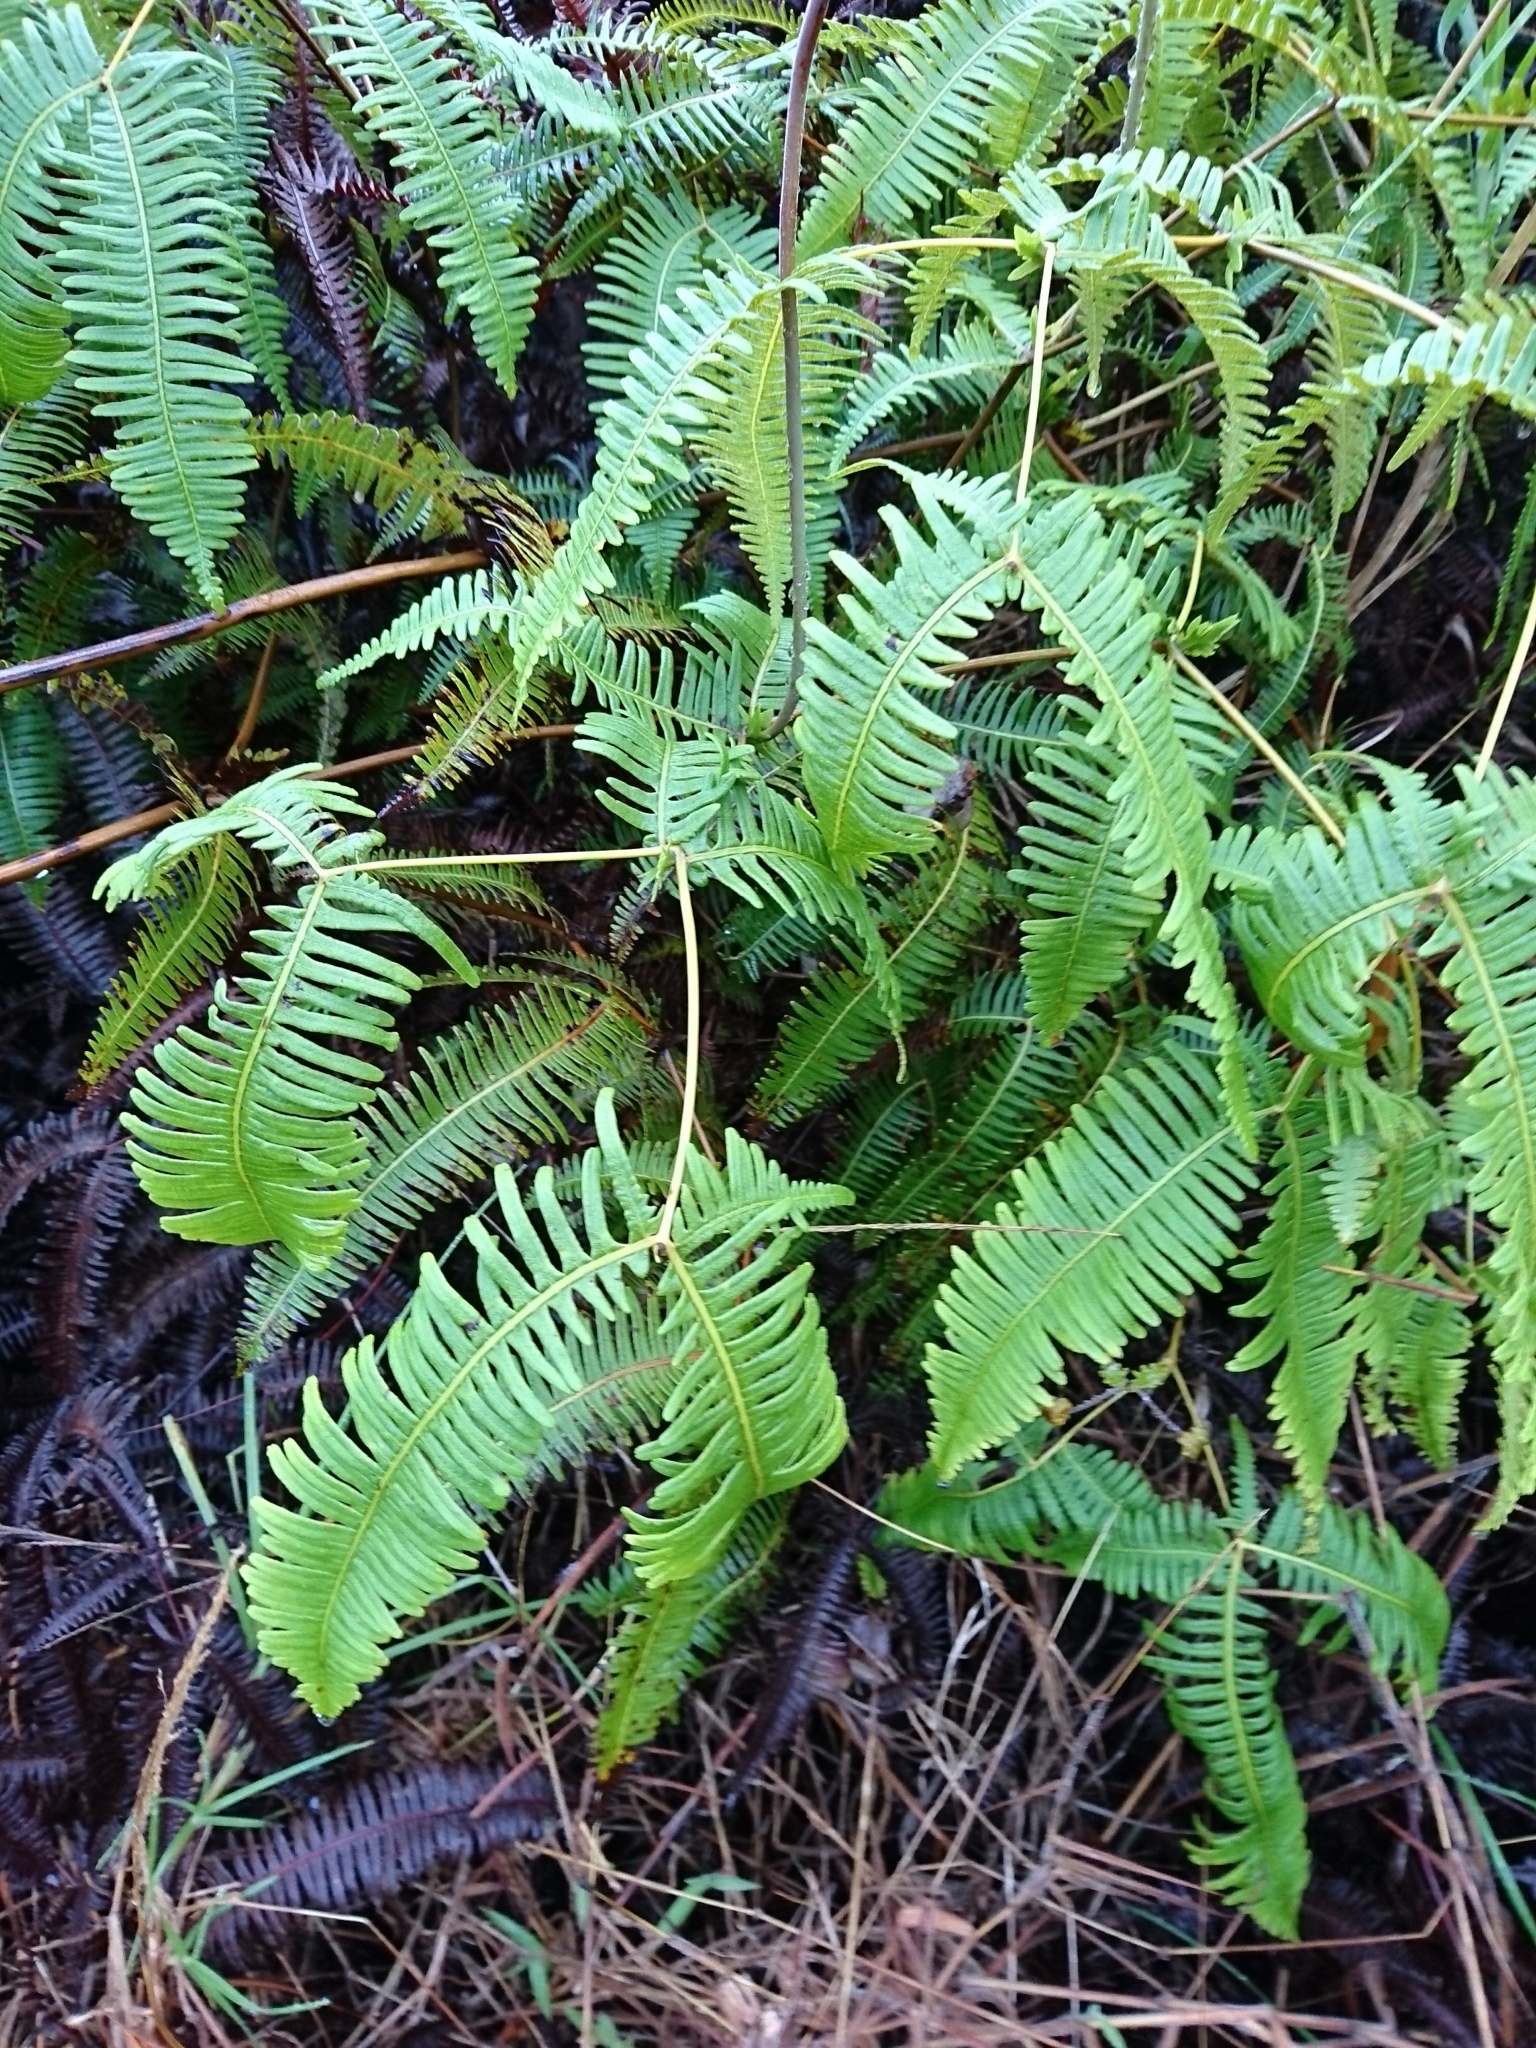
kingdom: Plantae
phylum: Tracheophyta
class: Polypodiopsida
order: Gleicheniales
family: Gleicheniaceae
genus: Dicranopteris
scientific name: Dicranopteris linearis
